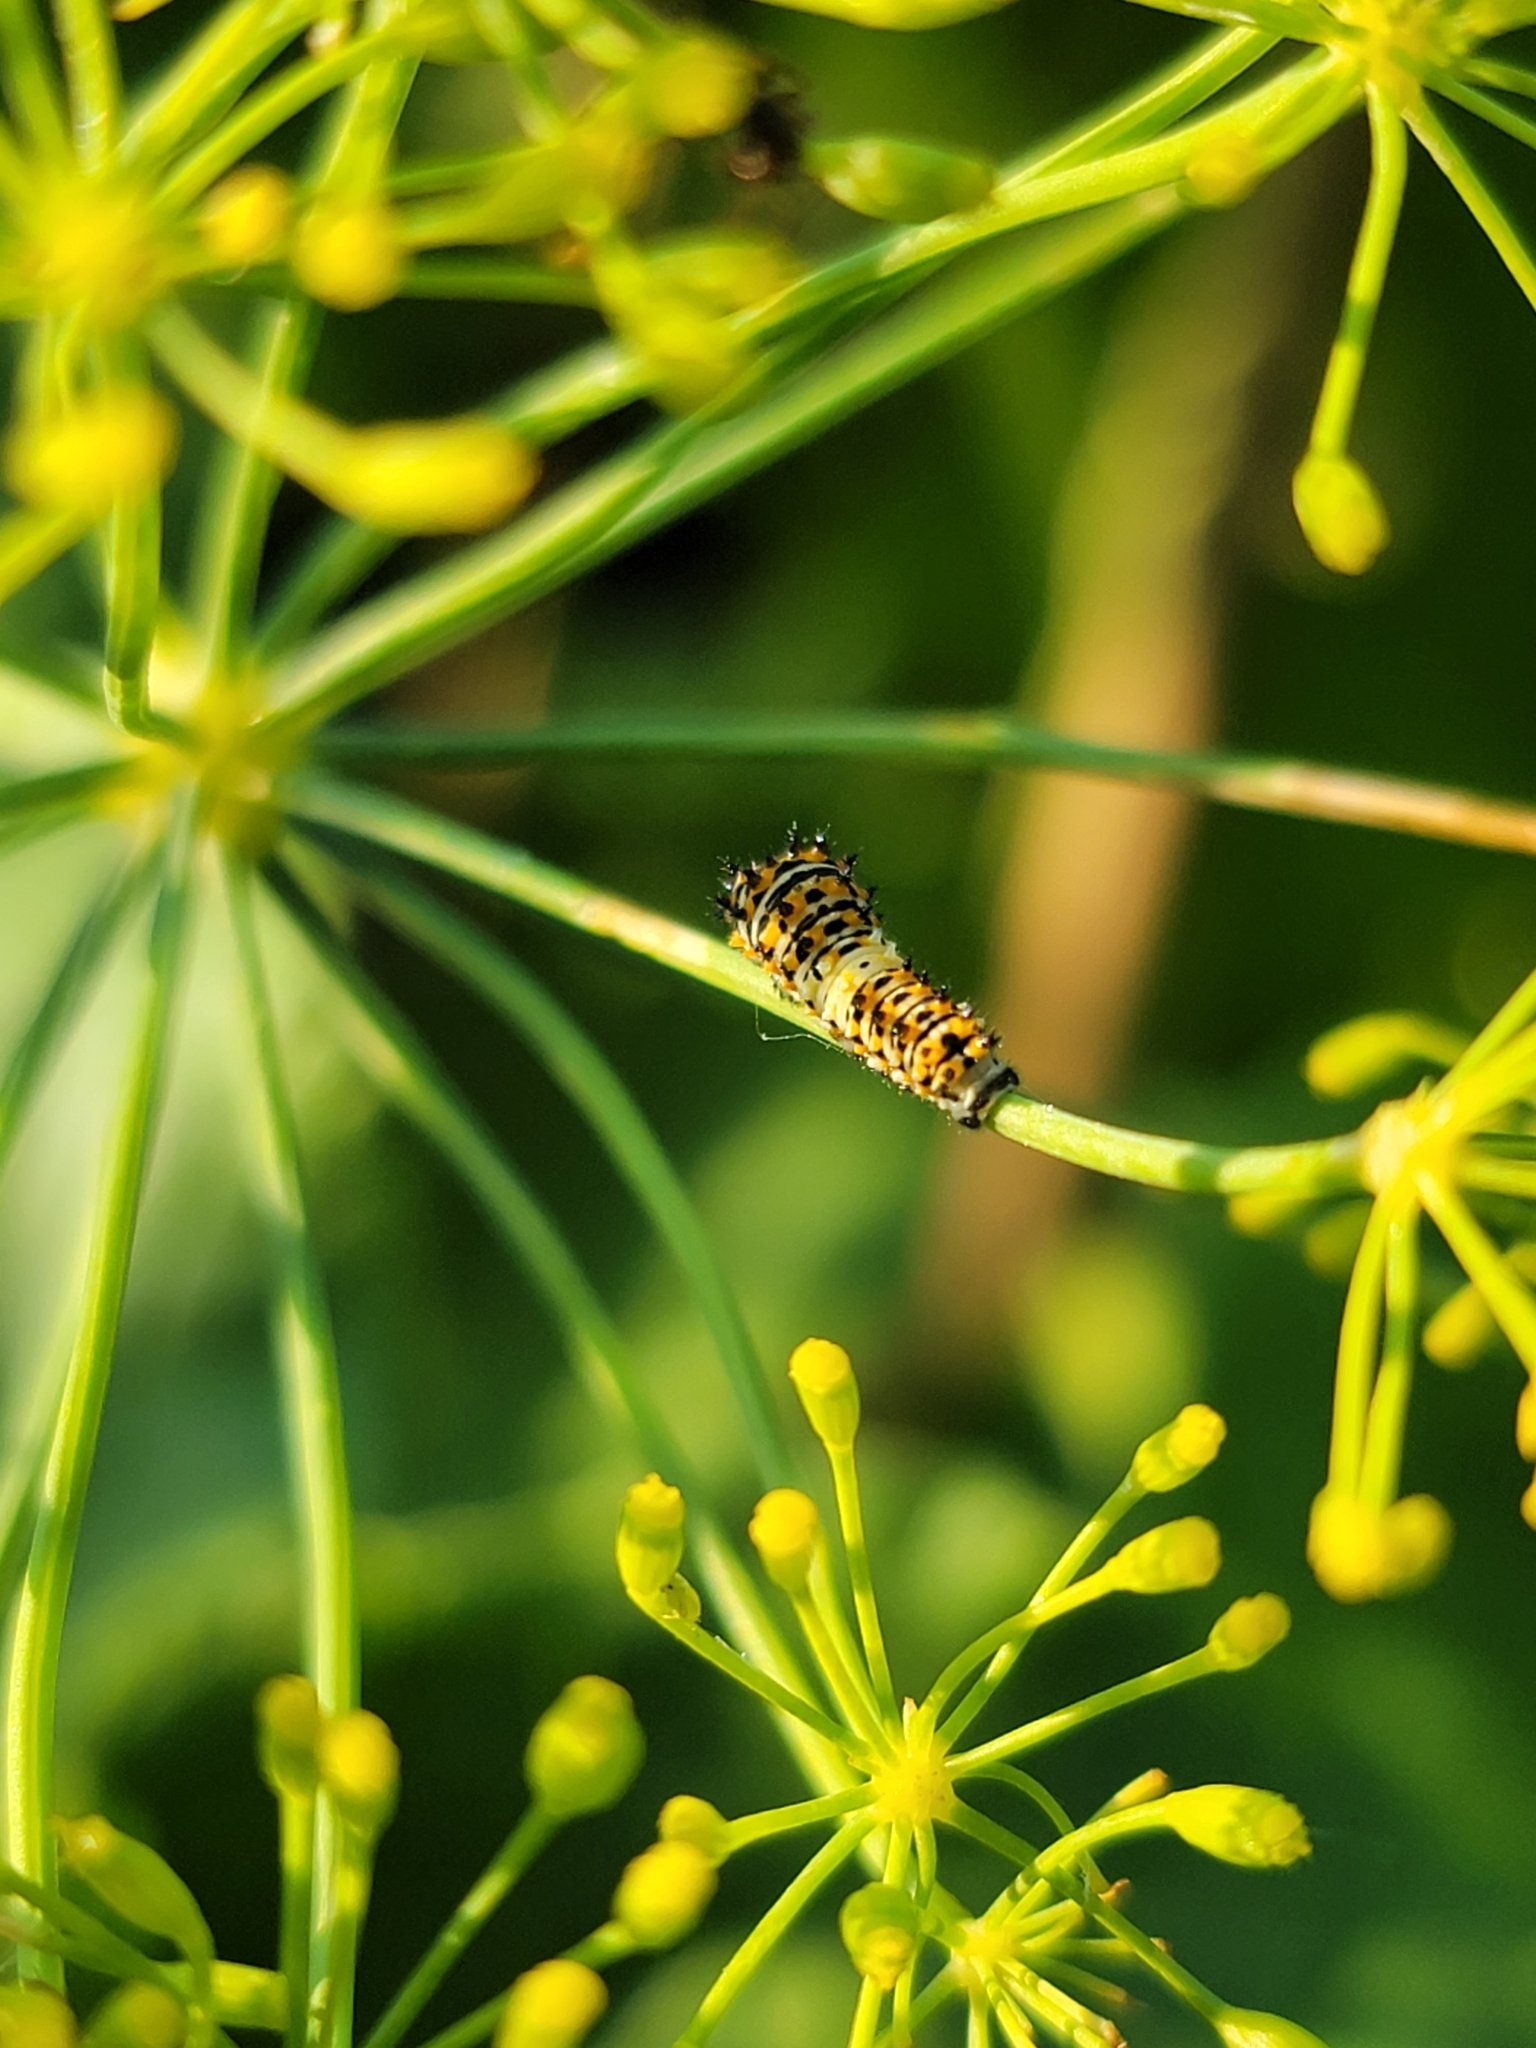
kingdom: Animalia
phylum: Arthropoda
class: Insecta
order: Lepidoptera
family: Papilionidae
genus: Papilio
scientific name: Papilio polyxenes
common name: Black swallowtail
